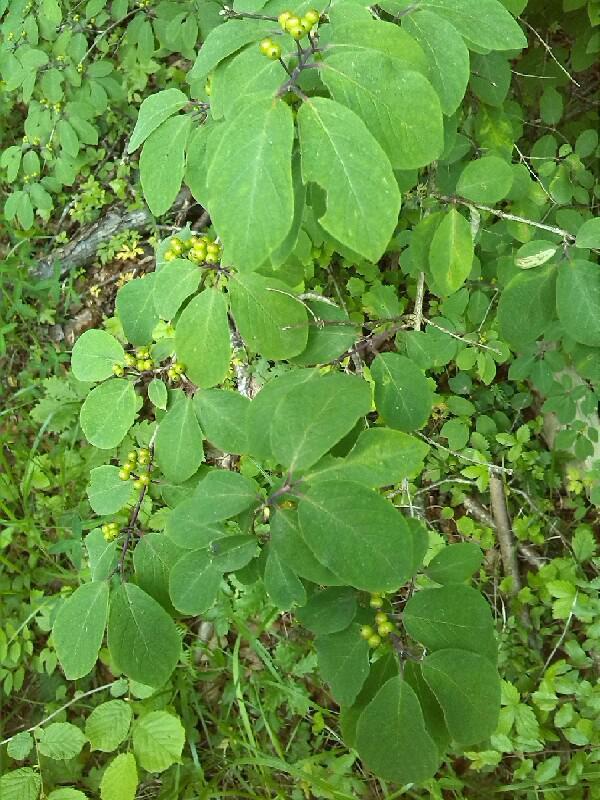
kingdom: Plantae
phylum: Tracheophyta
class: Magnoliopsida
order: Dipsacales
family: Caprifoliaceae
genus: Lonicera
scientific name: Lonicera xylosteum
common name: Fly honeysuckle
